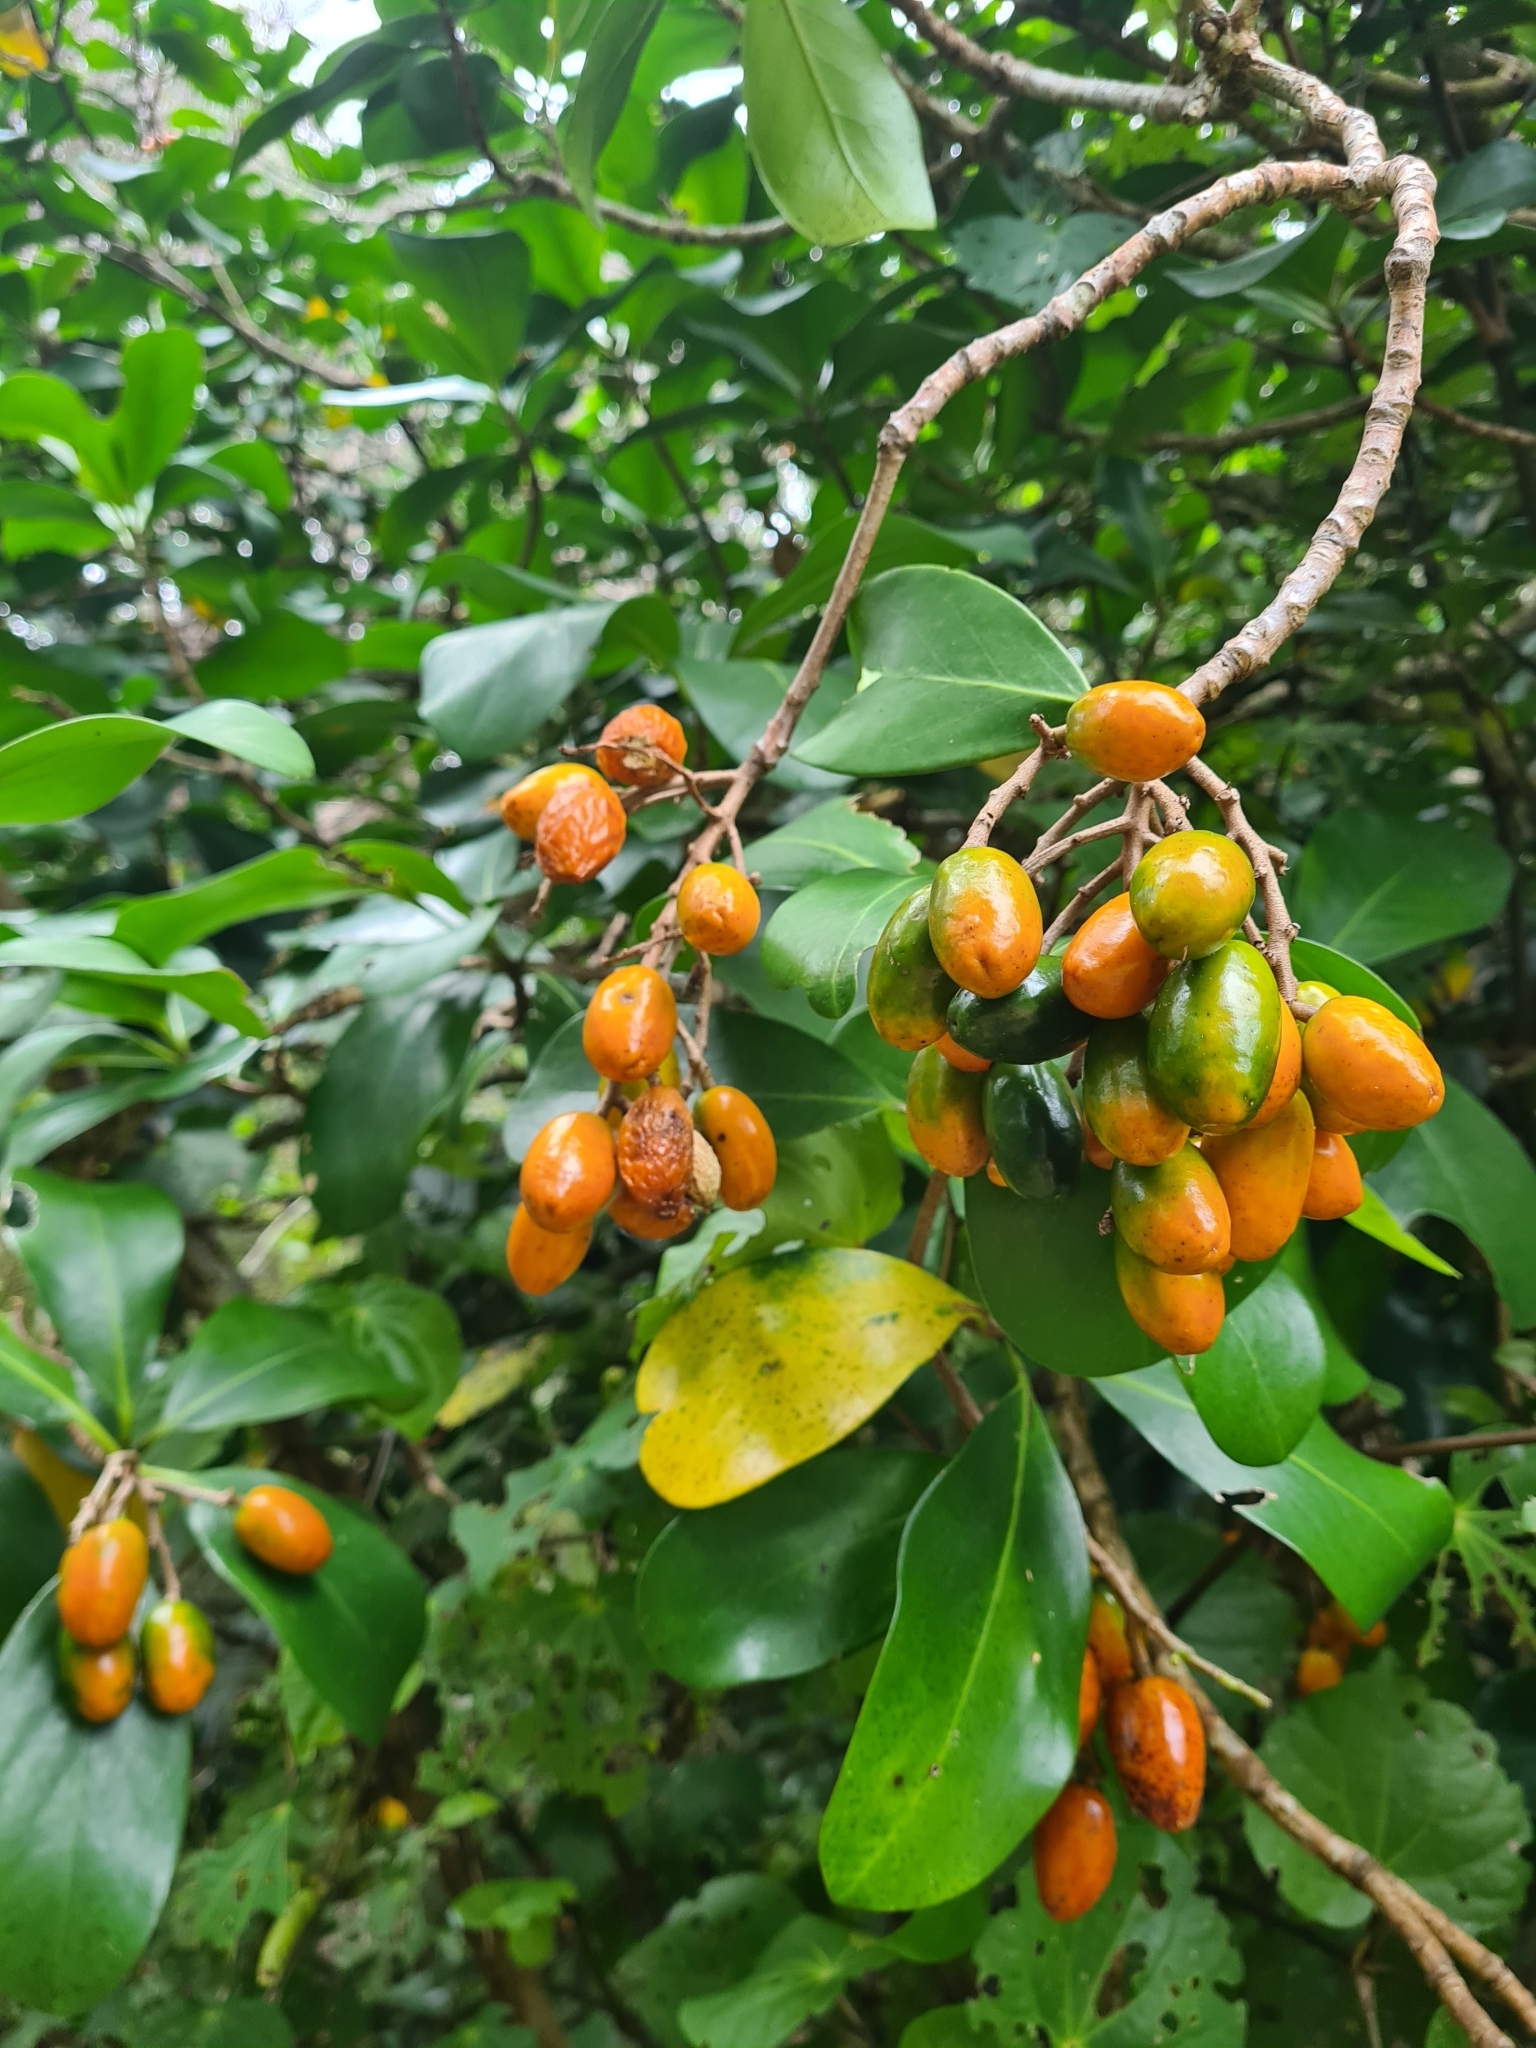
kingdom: Plantae
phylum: Tracheophyta
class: Magnoliopsida
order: Cucurbitales
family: Corynocarpaceae
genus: Corynocarpus
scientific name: Corynocarpus laevigatus
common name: New zealand laurel
